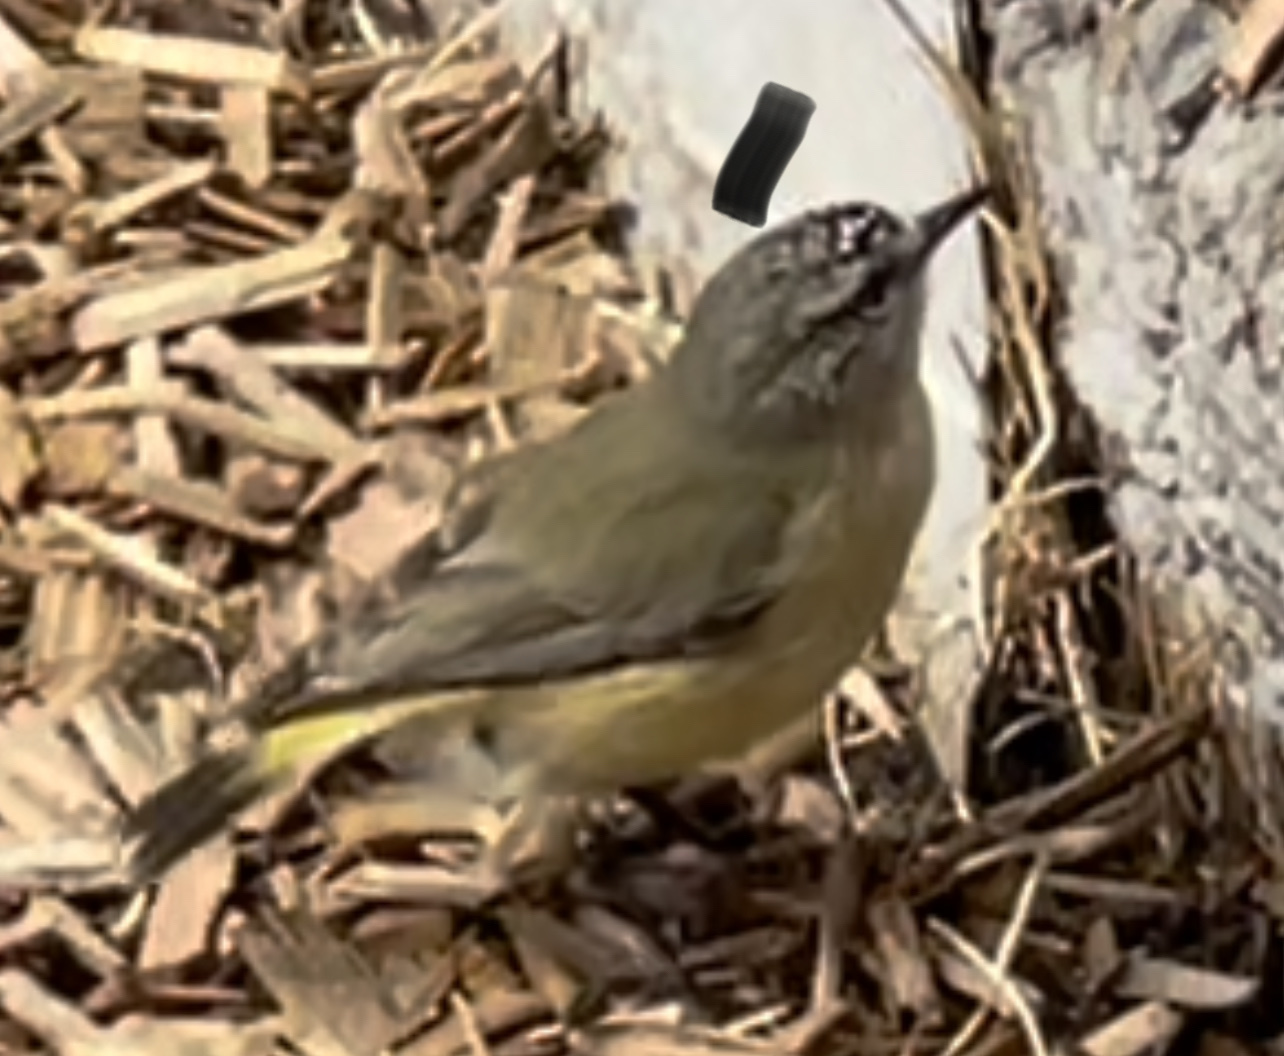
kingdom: Animalia
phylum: Chordata
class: Aves
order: Passeriformes
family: Acanthizidae
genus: Acanthiza
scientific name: Acanthiza chrysorrhoa
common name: Yellow-rumped thornbill
